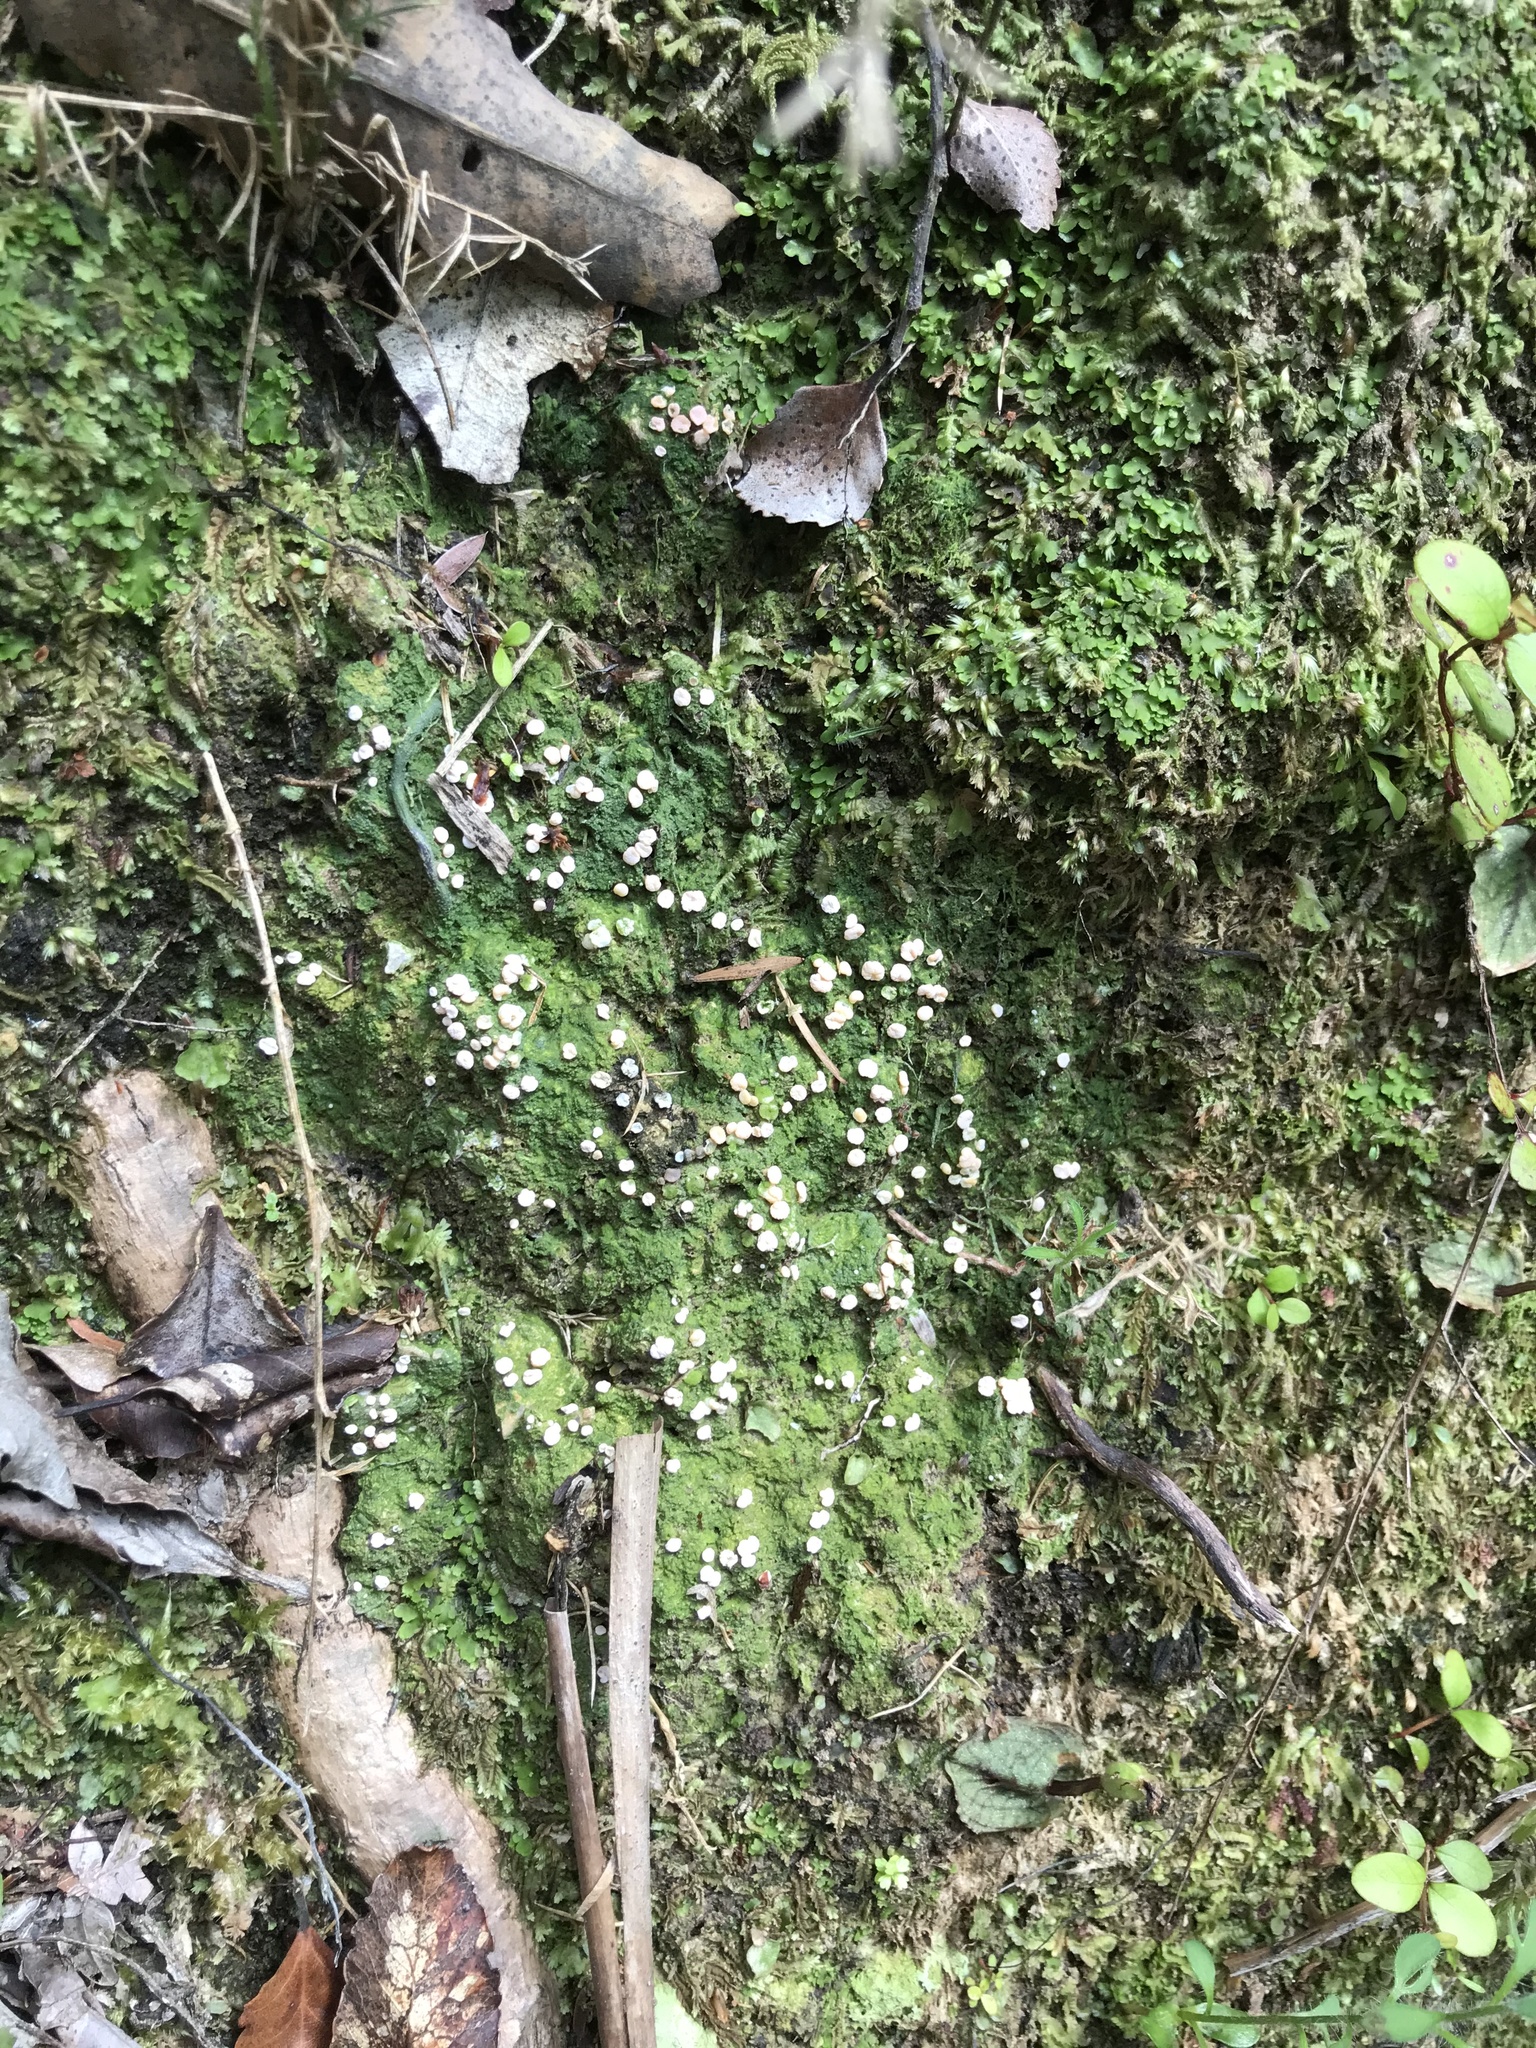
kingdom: Fungi
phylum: Ascomycota
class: Lecanoromycetes
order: Pertusariales
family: Icmadophilaceae
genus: Dibaeis
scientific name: Dibaeis absoluta
